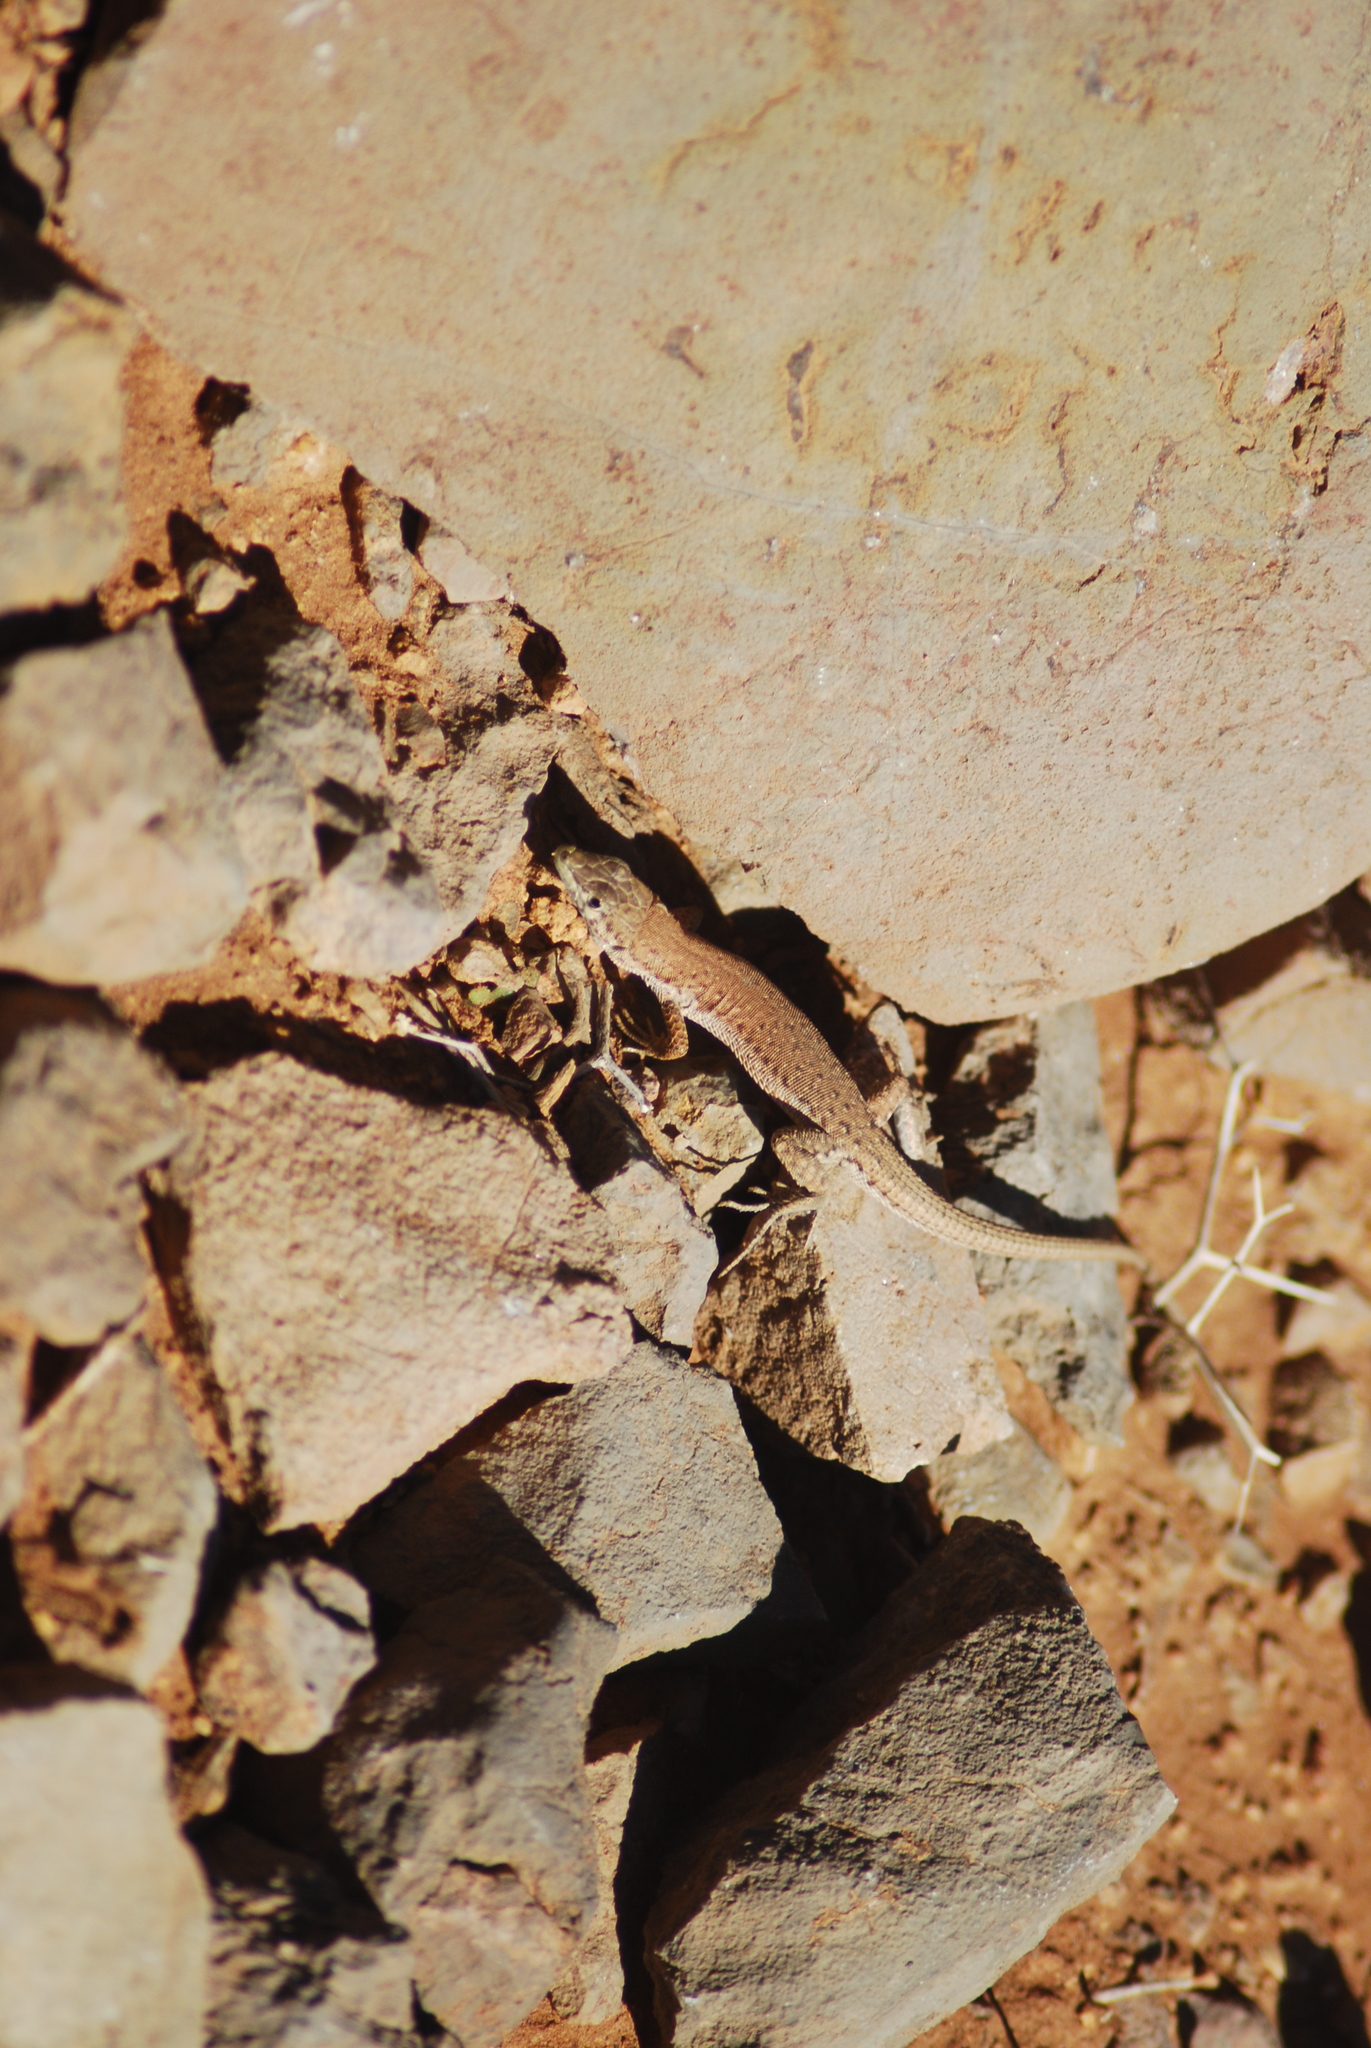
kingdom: Animalia
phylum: Chordata
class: Squamata
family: Lacertidae
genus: Mesalina
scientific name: Mesalina guttulata
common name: Desert lacerta
